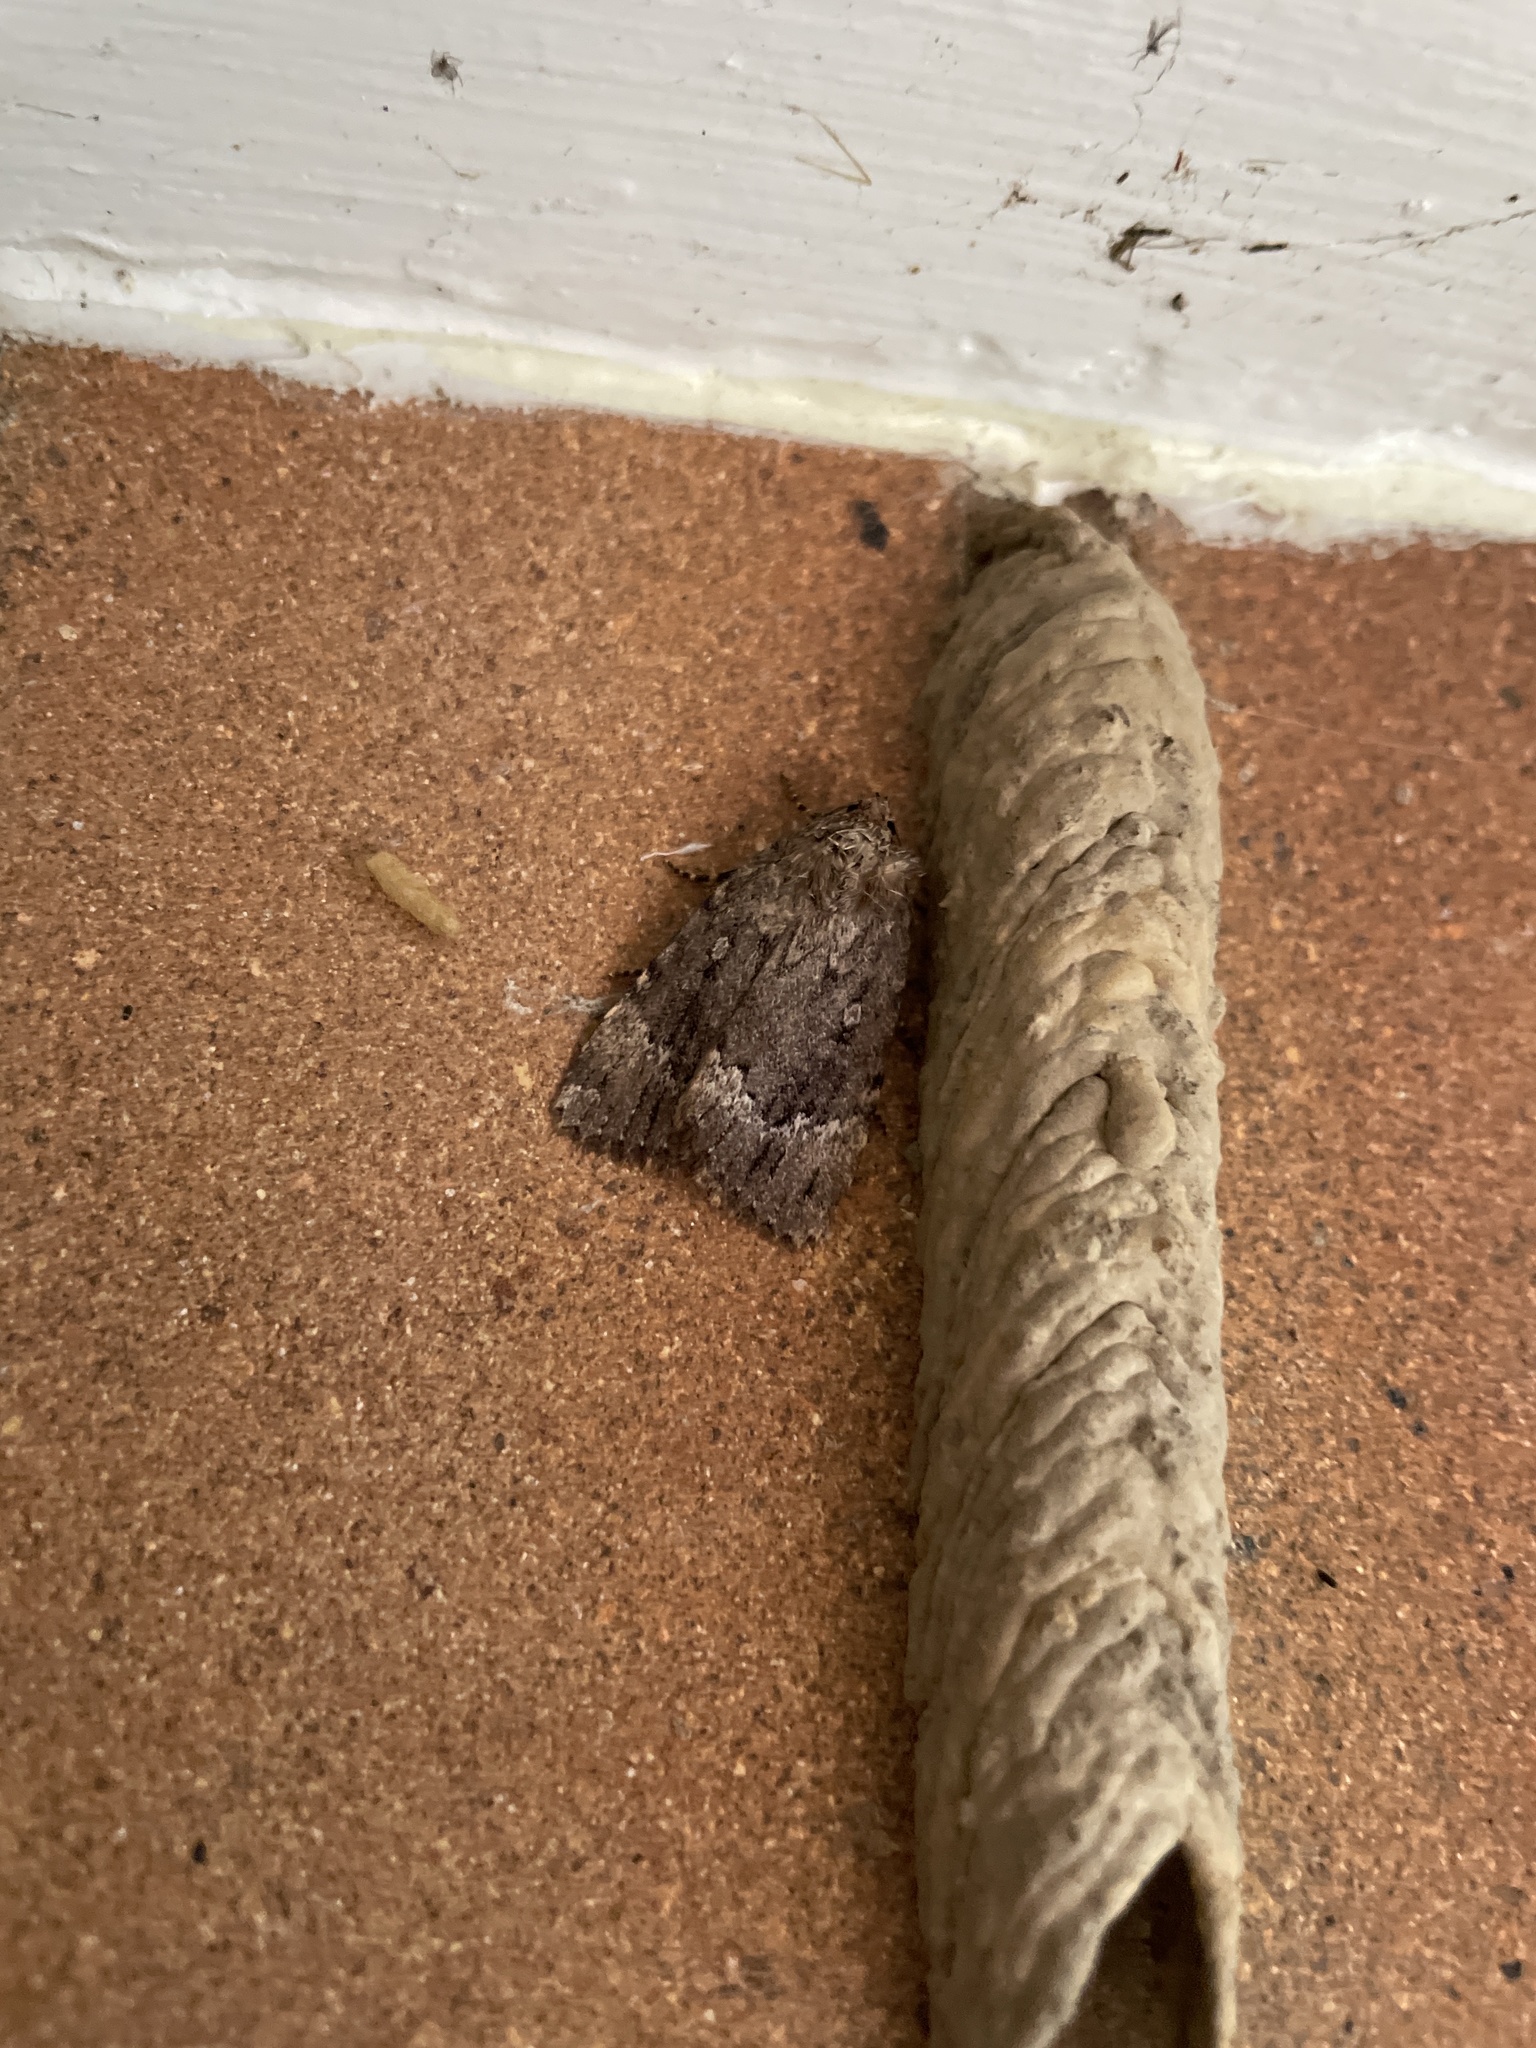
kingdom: Animalia
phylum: Arthropoda
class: Insecta
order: Lepidoptera
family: Noctuidae
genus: Amphipyra
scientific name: Amphipyra pyramidoides
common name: American copper underwing
